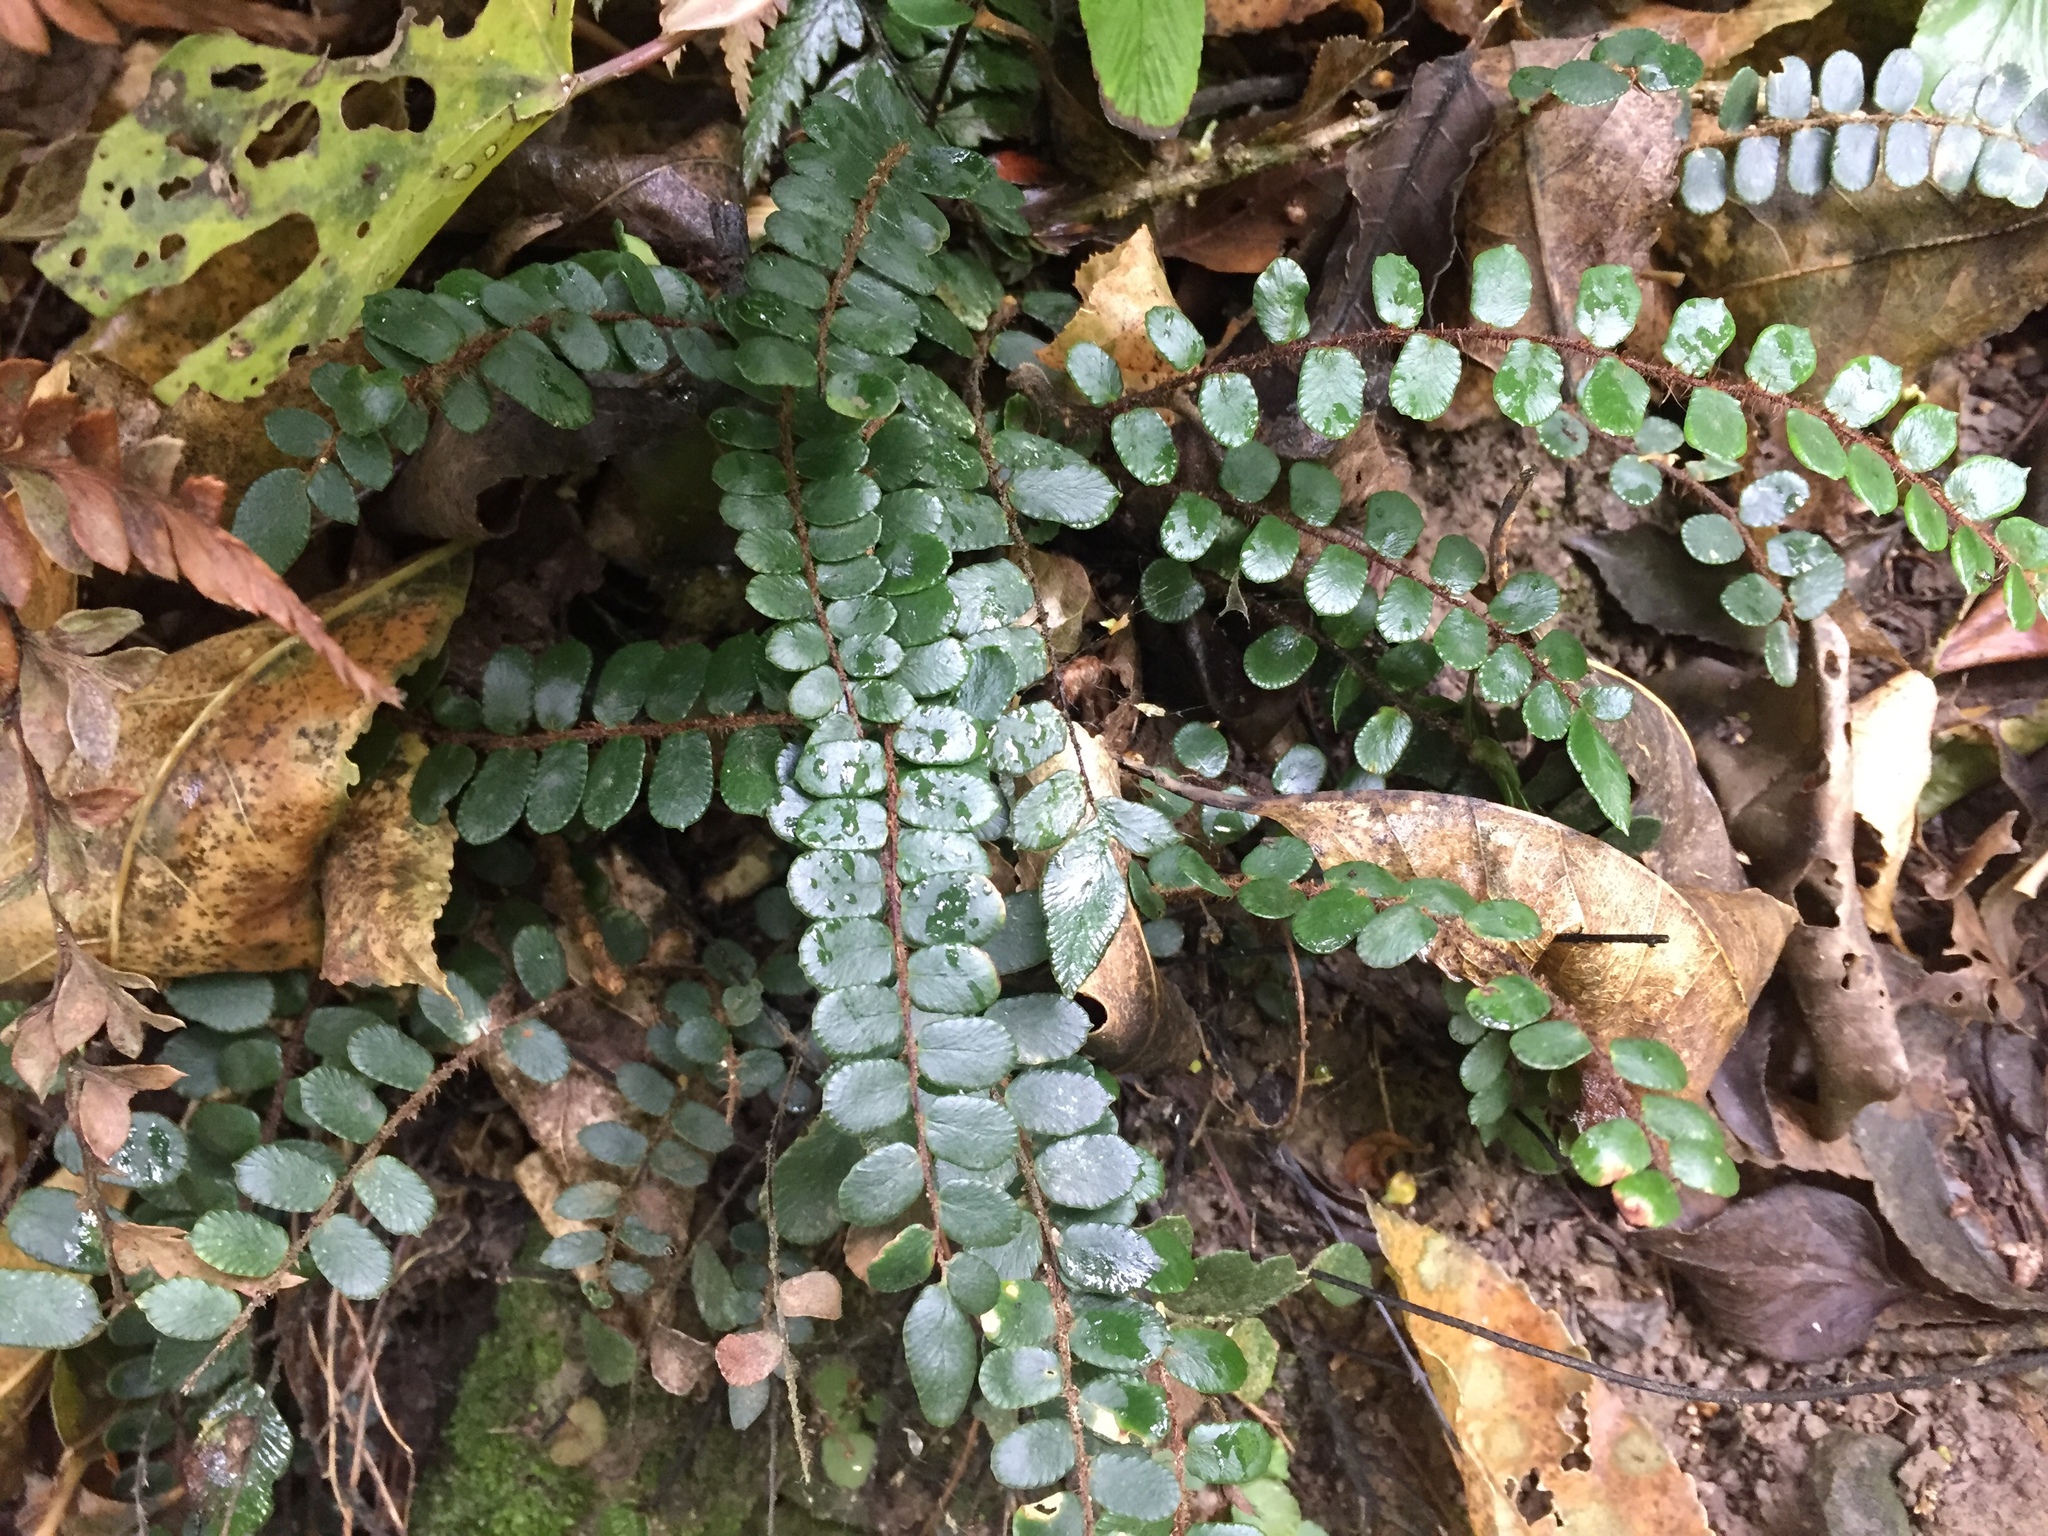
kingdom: Plantae
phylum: Tracheophyta
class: Polypodiopsida
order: Polypodiales
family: Pteridaceae
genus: Pellaea
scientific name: Pellaea rotundifolia
